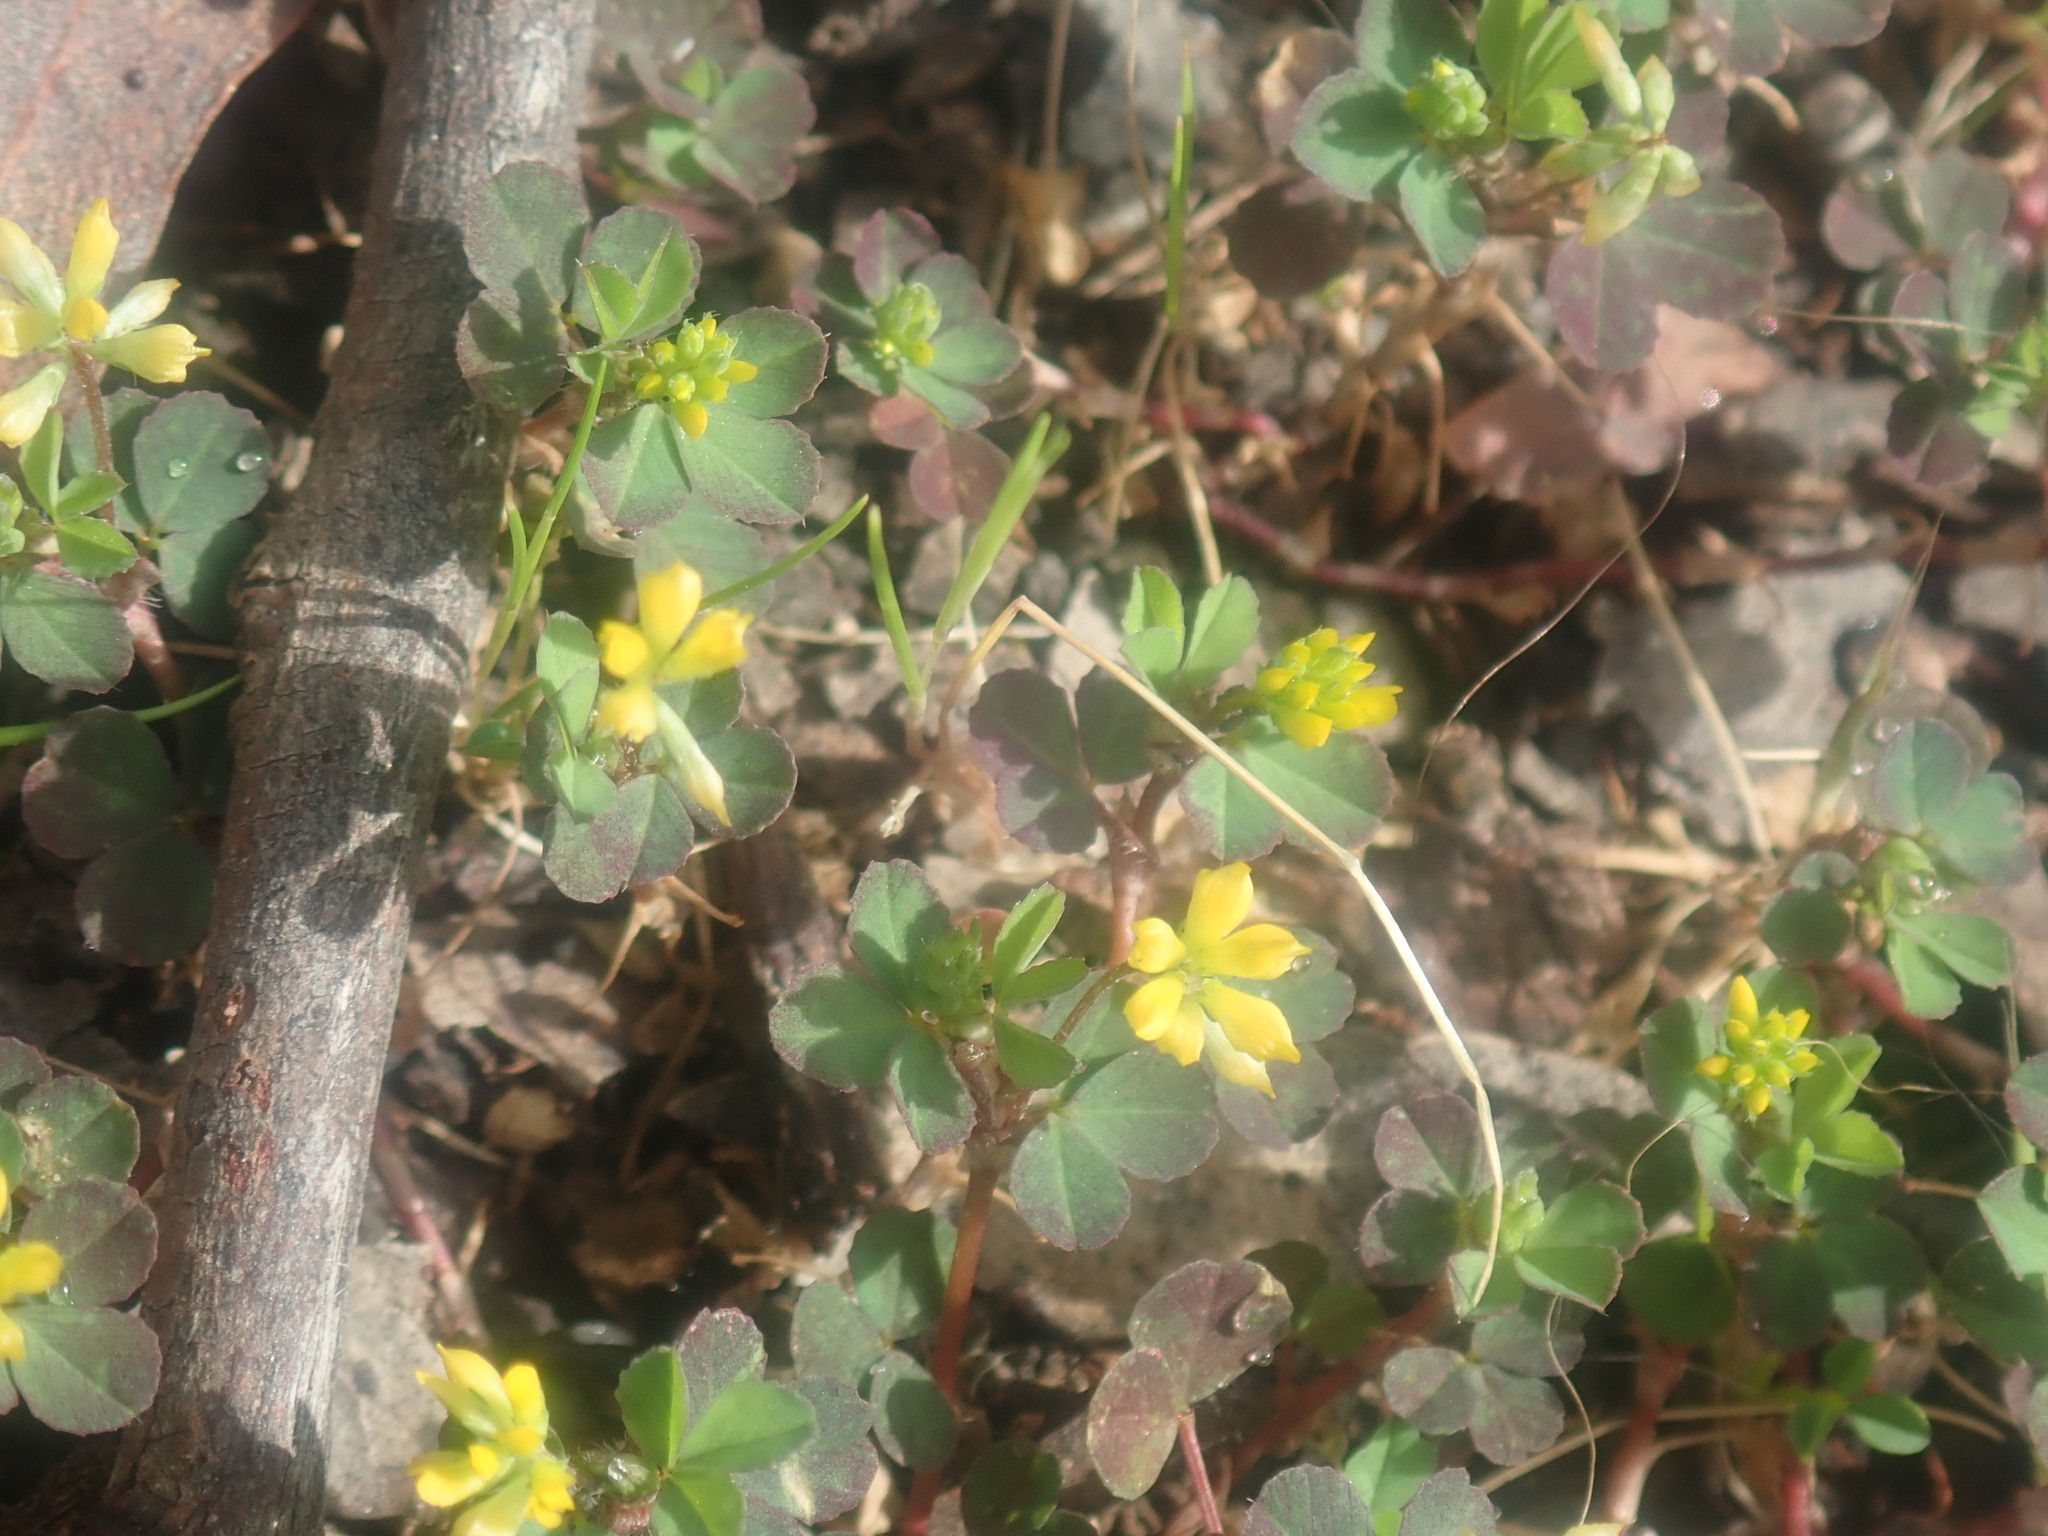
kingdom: Plantae
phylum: Tracheophyta
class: Magnoliopsida
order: Fabales
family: Fabaceae
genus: Trifolium
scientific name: Trifolium dubium
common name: Suckling clover
